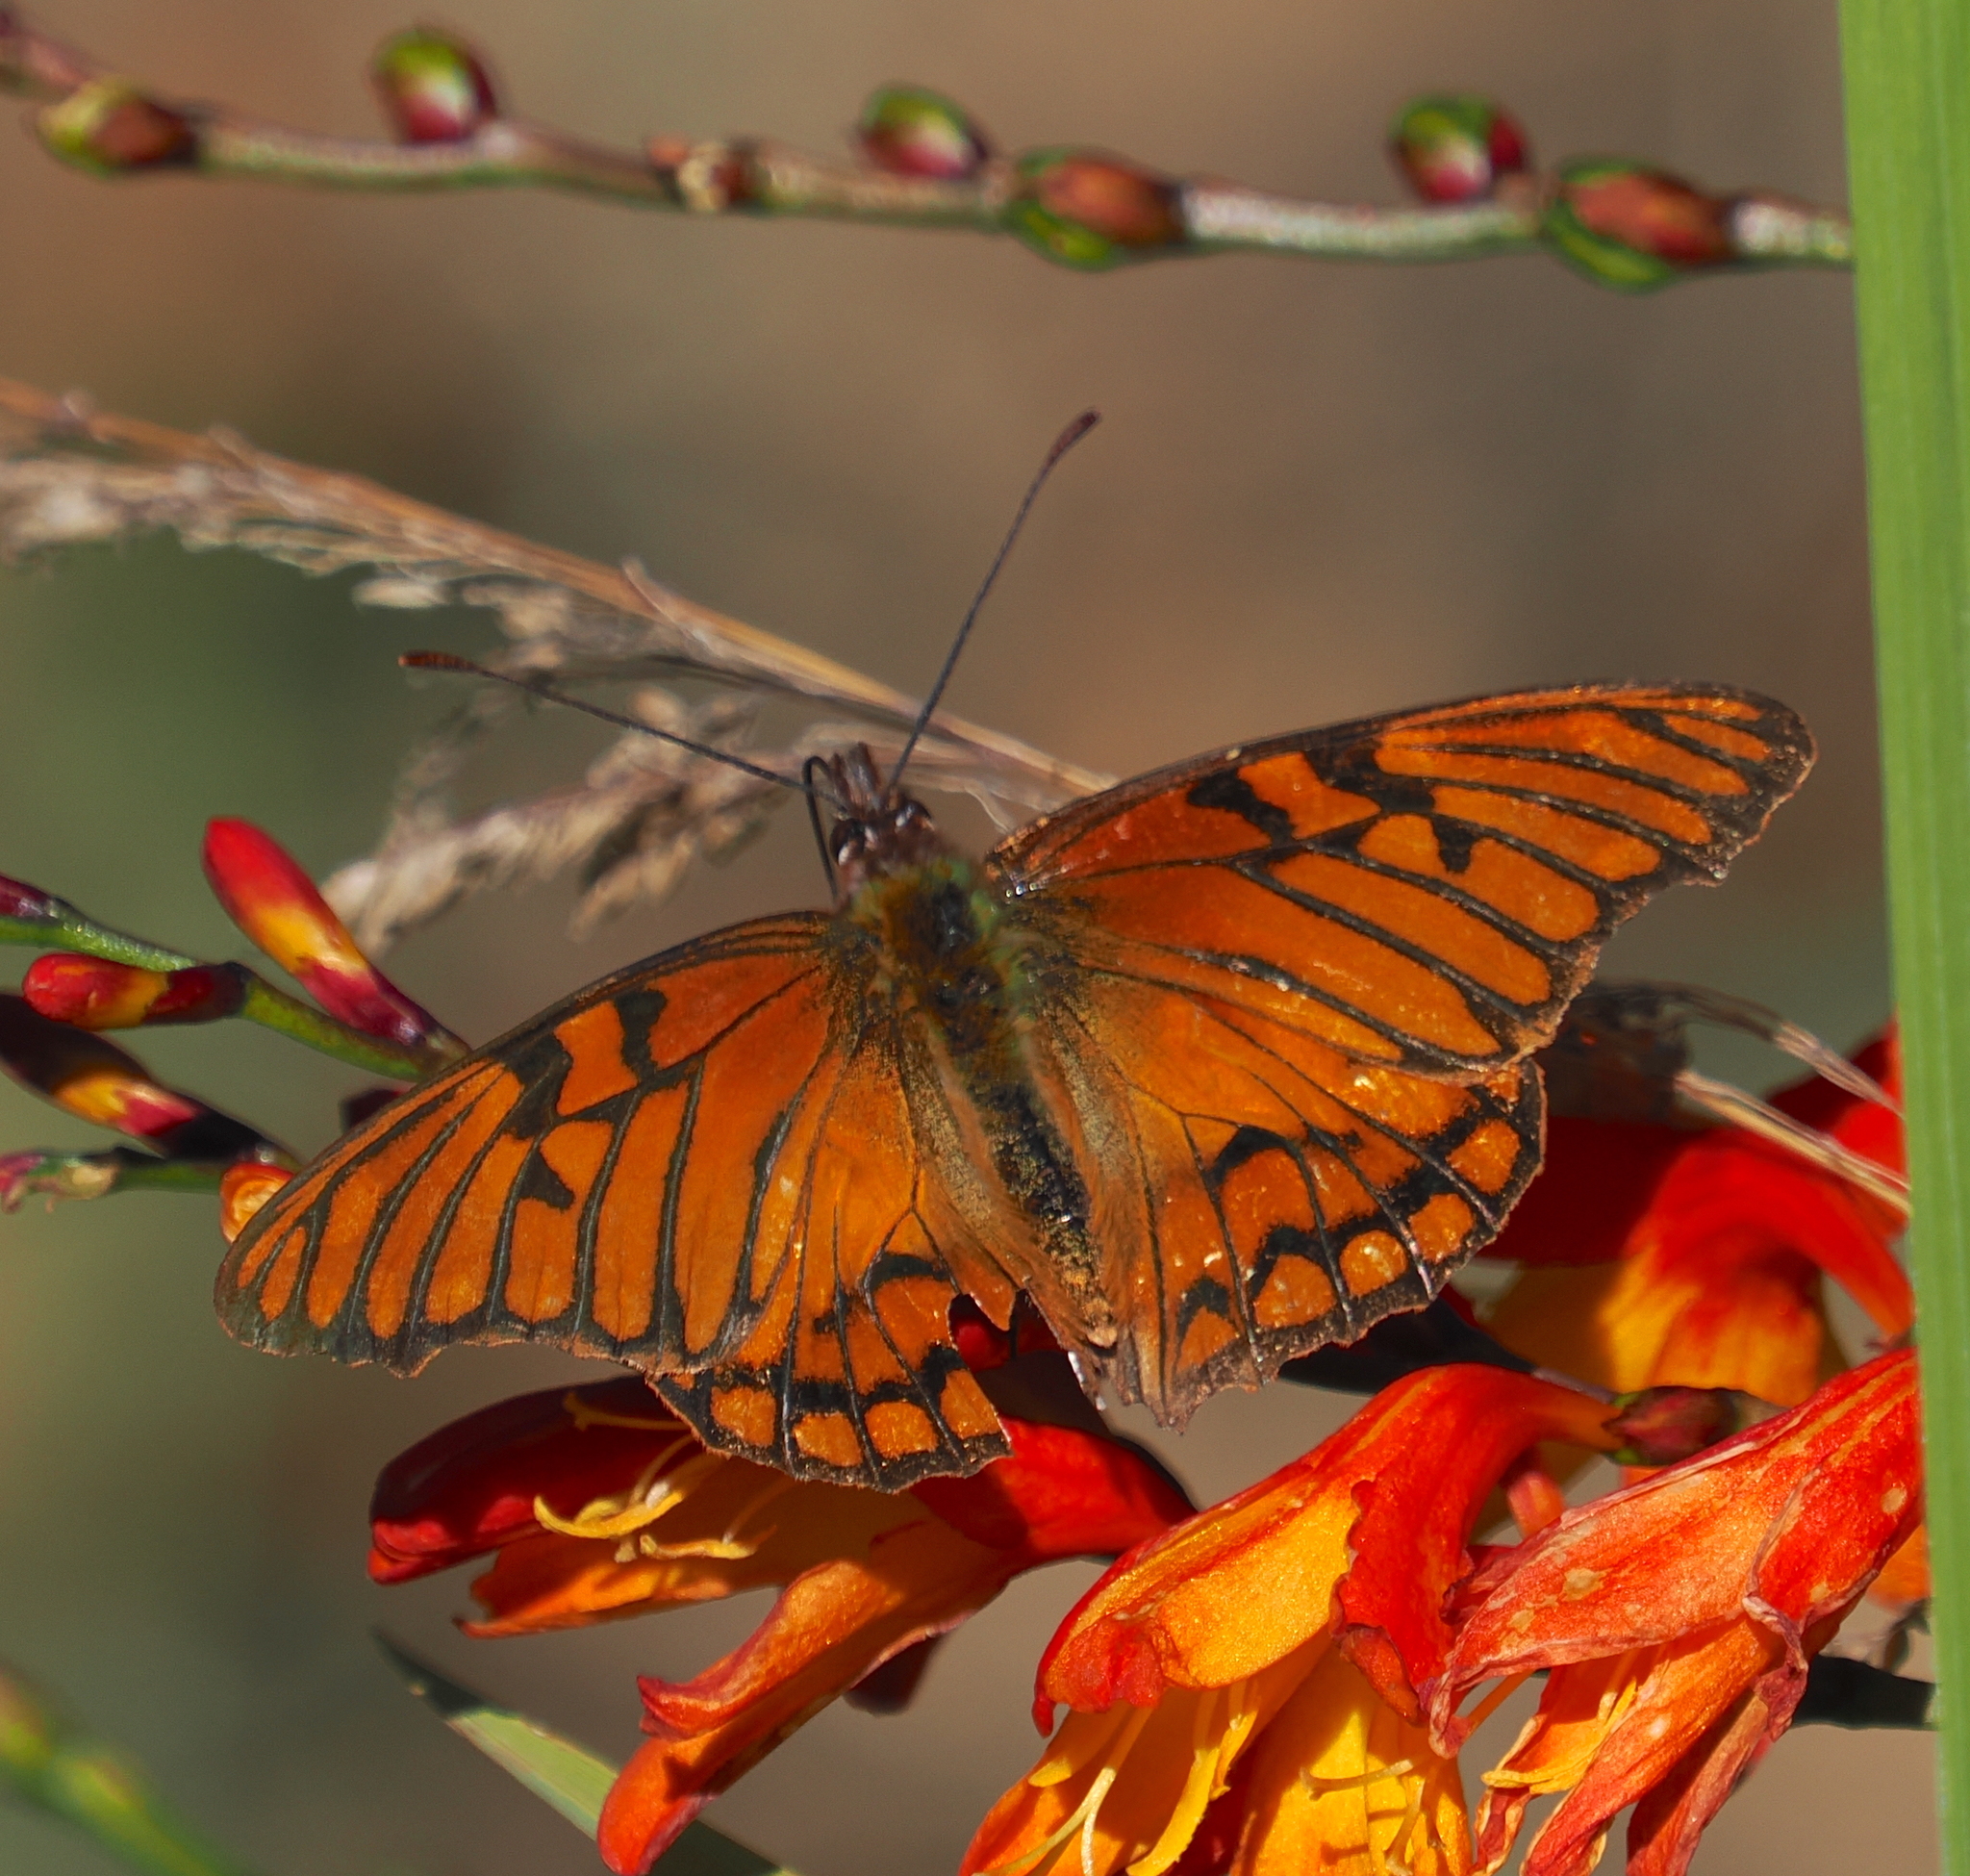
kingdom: Animalia
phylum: Arthropoda
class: Insecta
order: Lepidoptera
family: Nymphalidae
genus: Dione
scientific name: Dione glycera
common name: Andean silverspot
